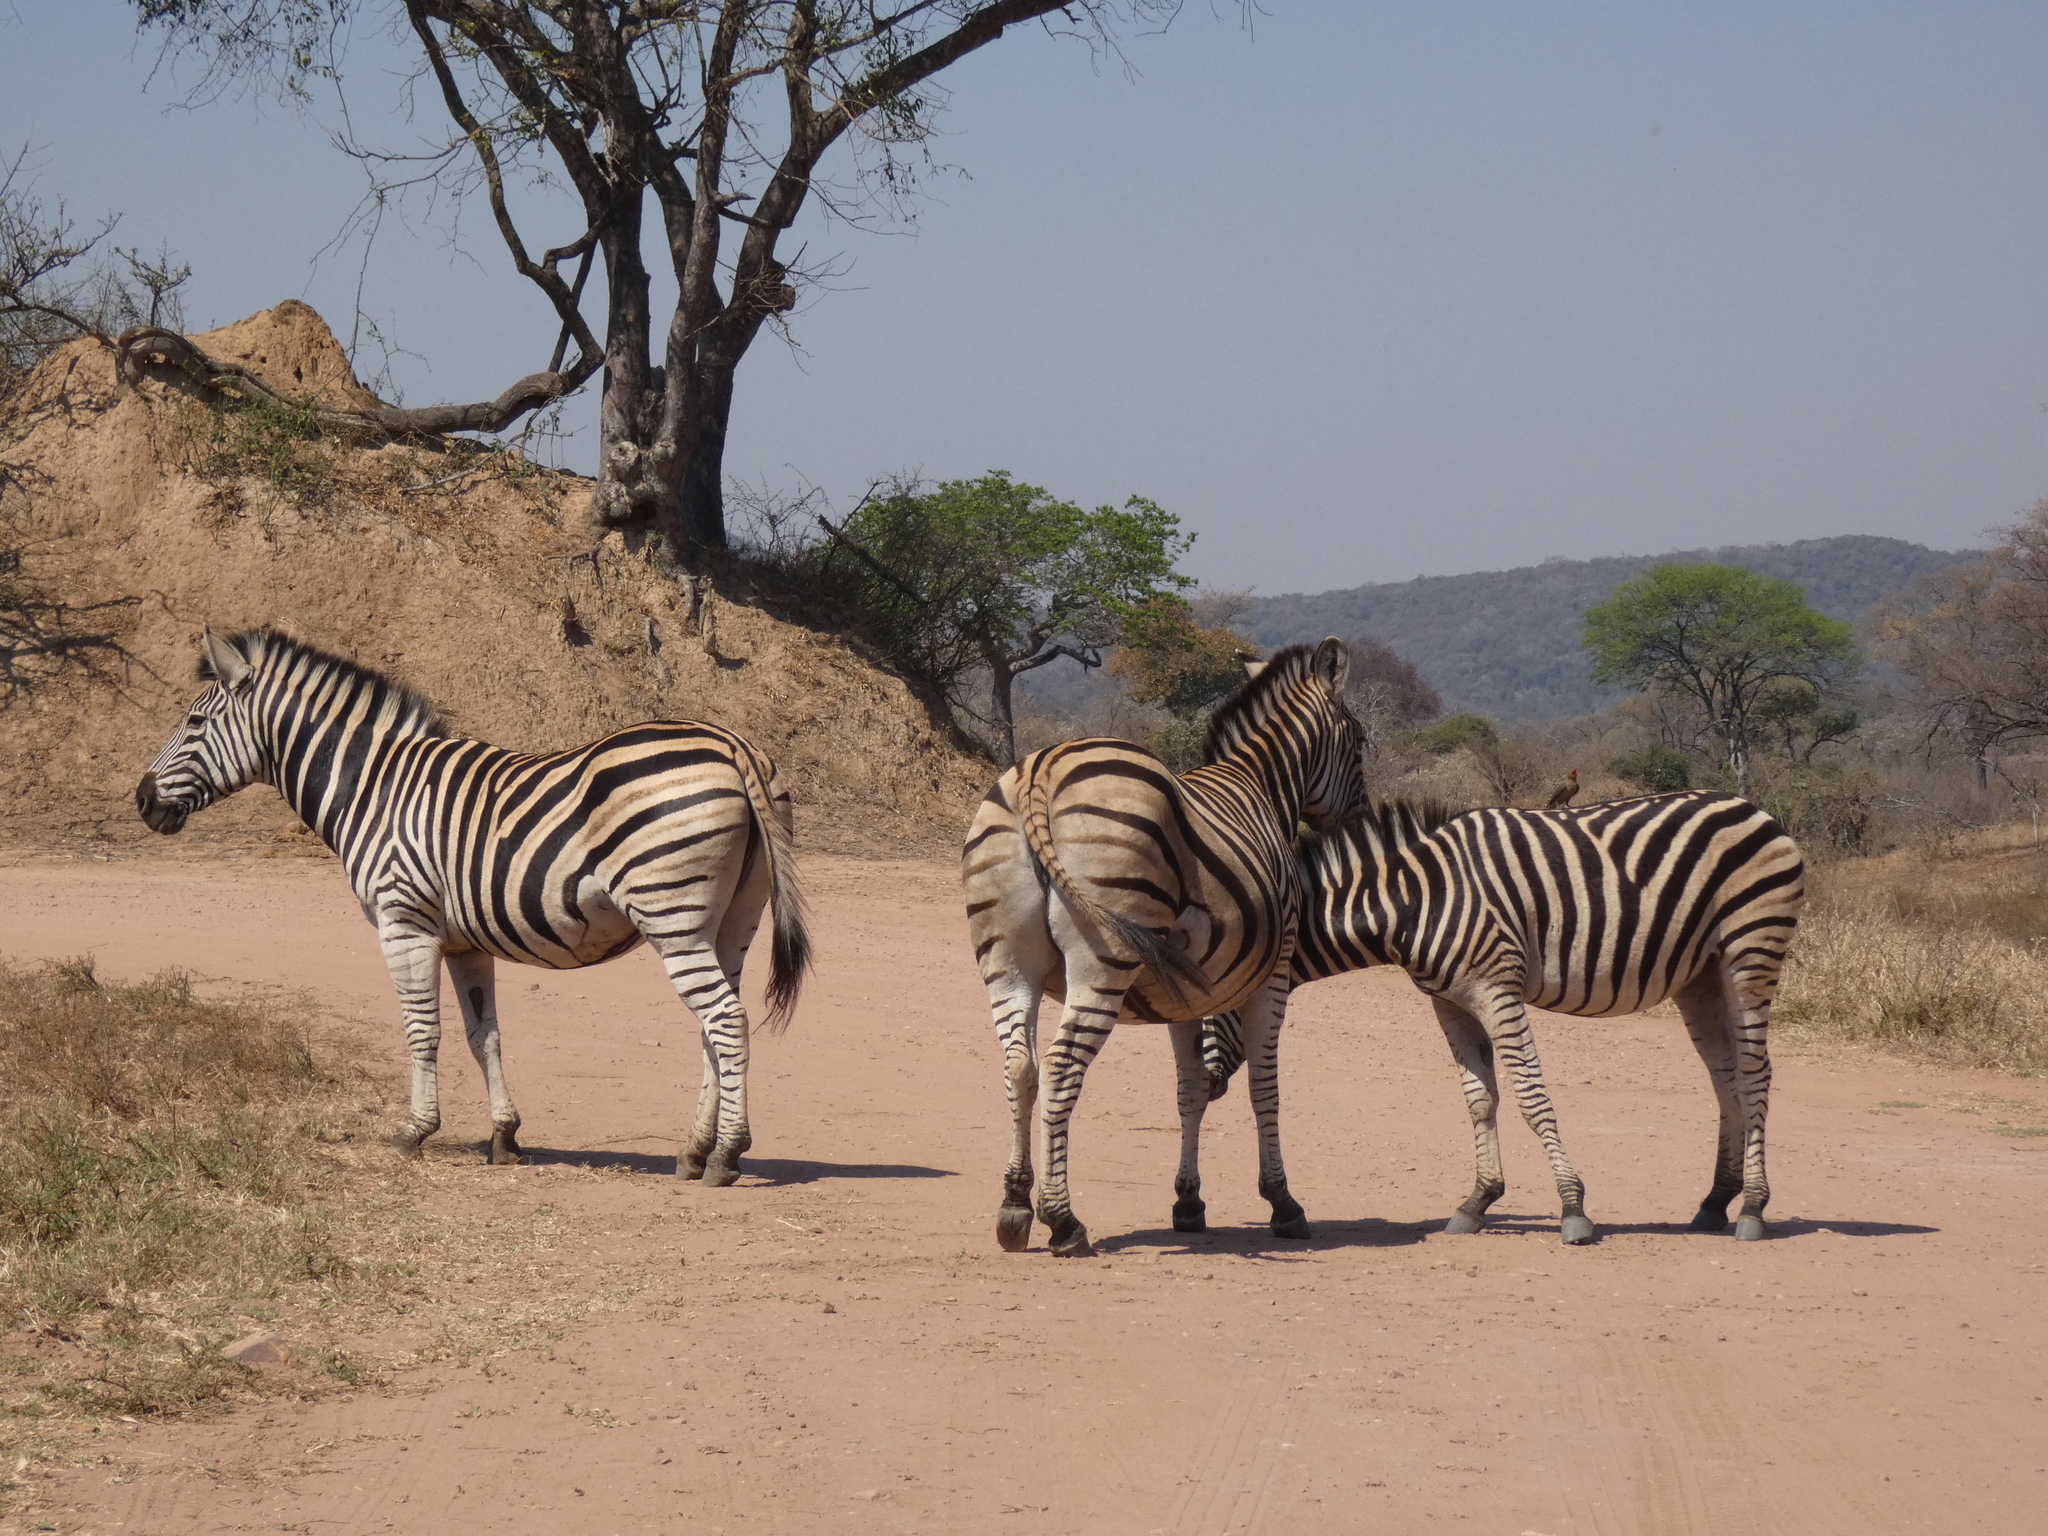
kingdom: Animalia
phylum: Chordata
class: Mammalia
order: Perissodactyla
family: Equidae
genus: Equus
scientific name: Equus quagga
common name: Plains zebra
